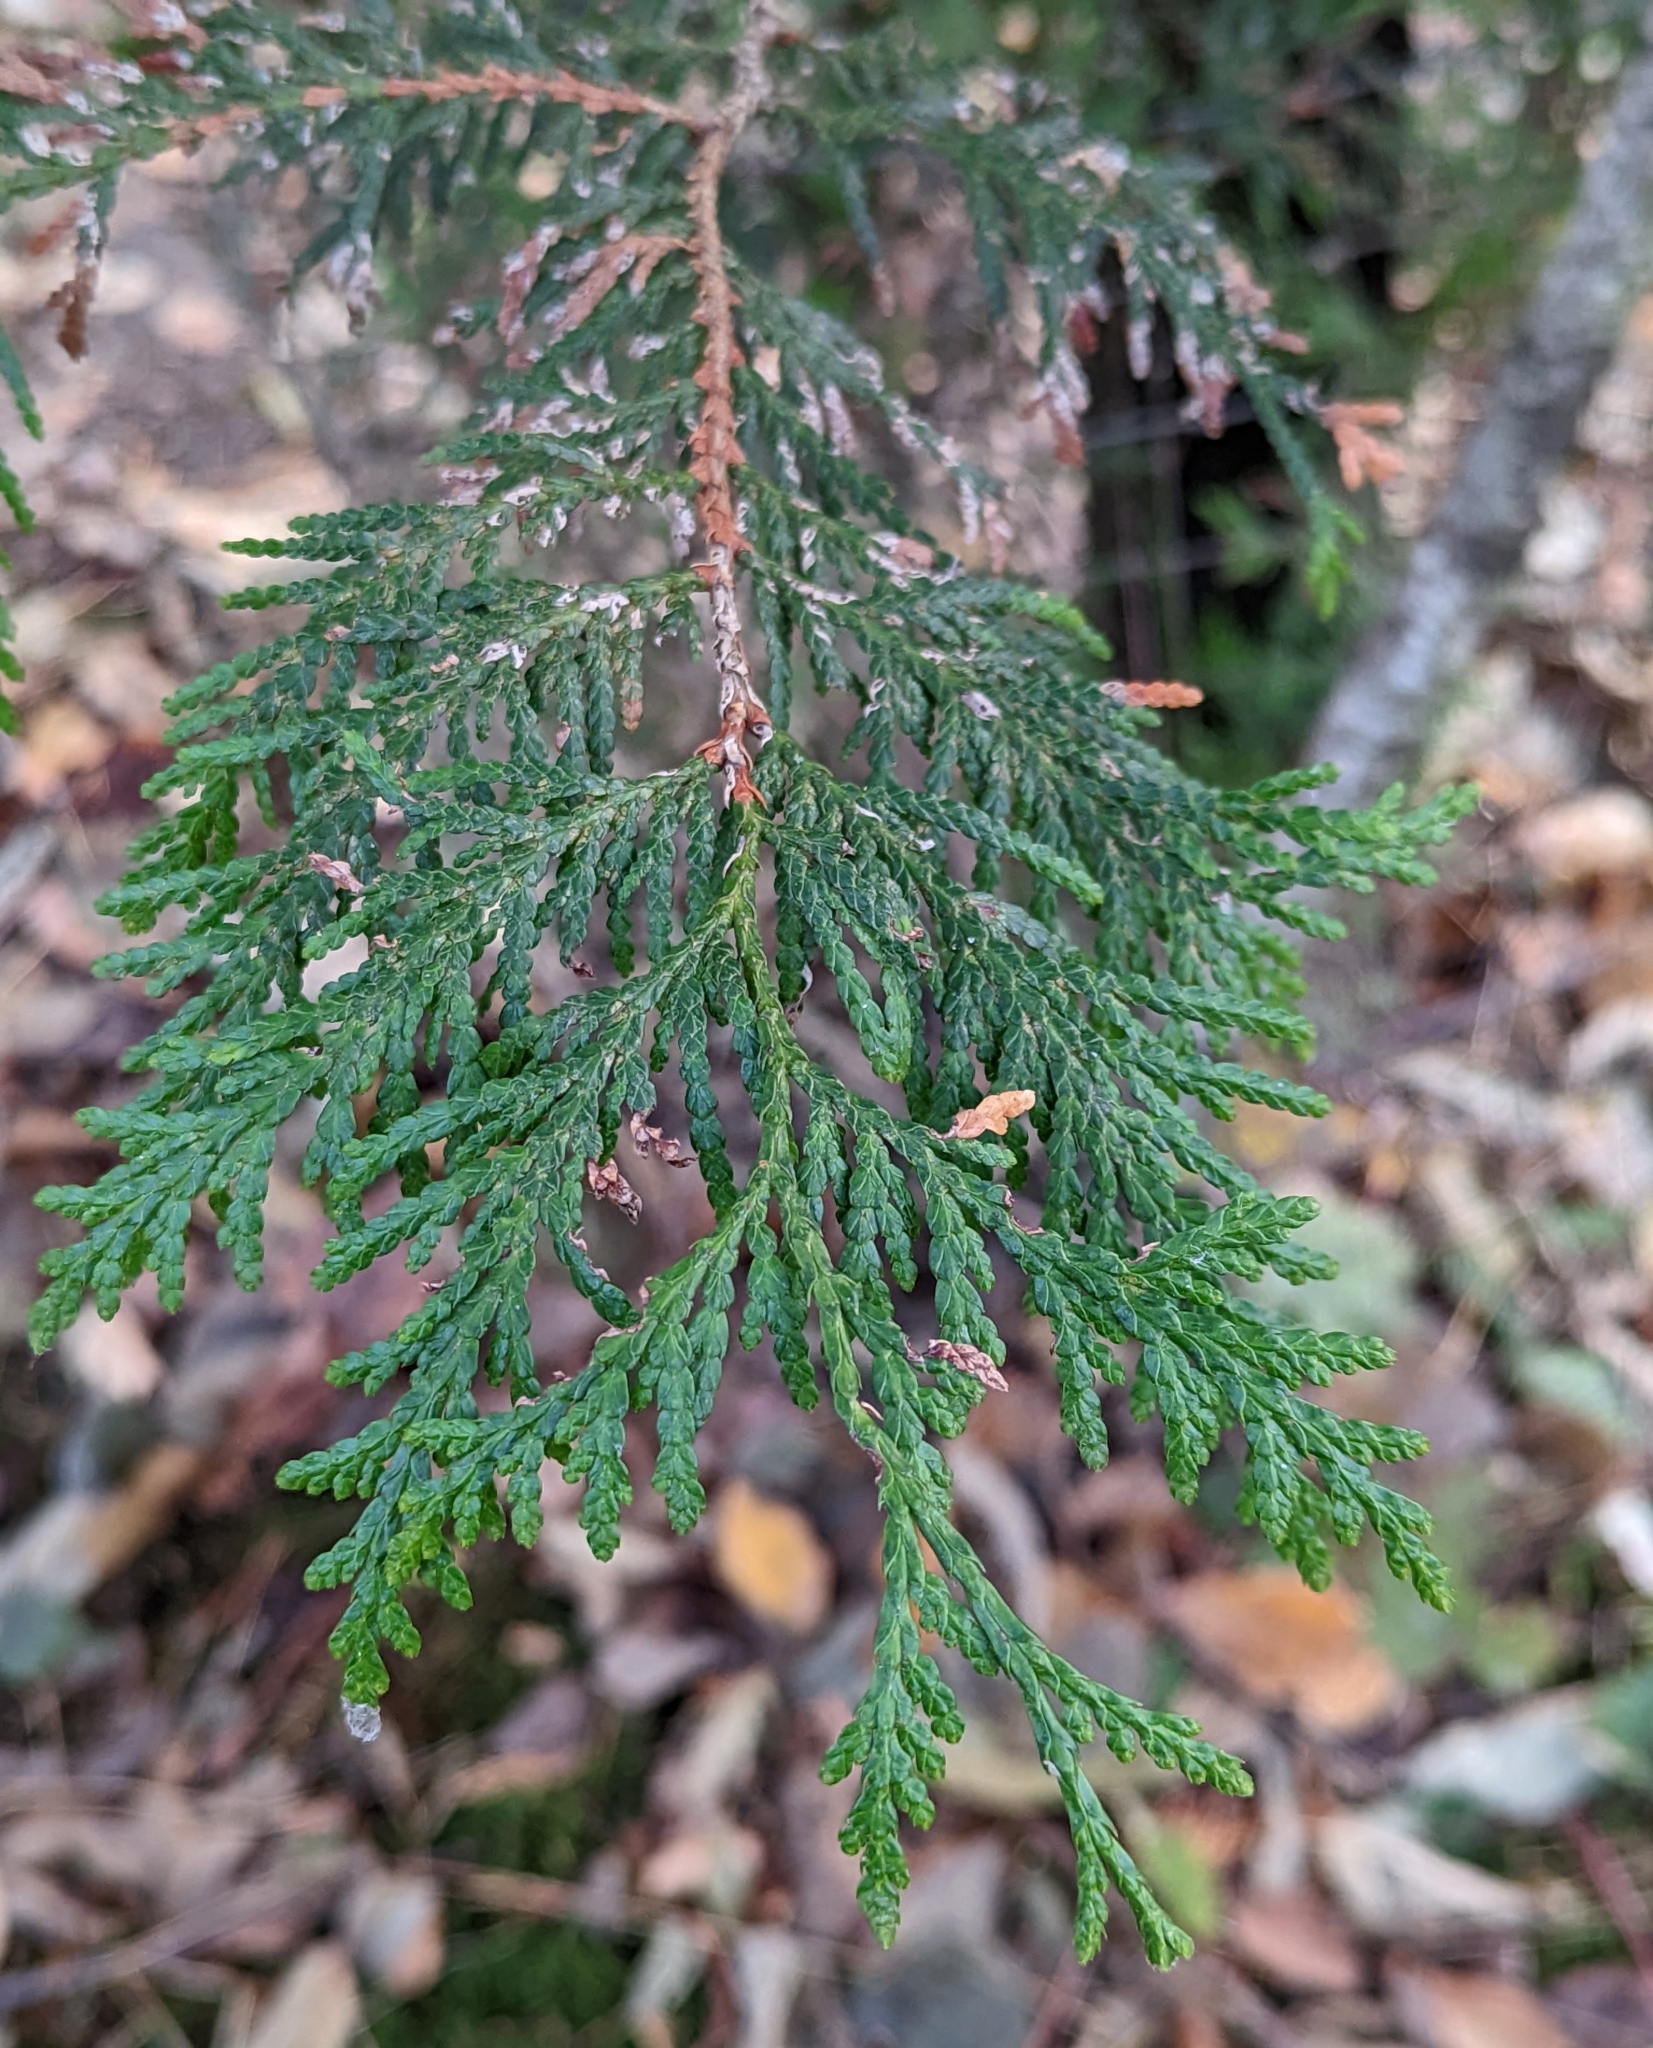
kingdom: Plantae
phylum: Tracheophyta
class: Pinopsida
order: Pinales
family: Cupressaceae
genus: Thuja
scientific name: Thuja plicata
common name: Western red-cedar
